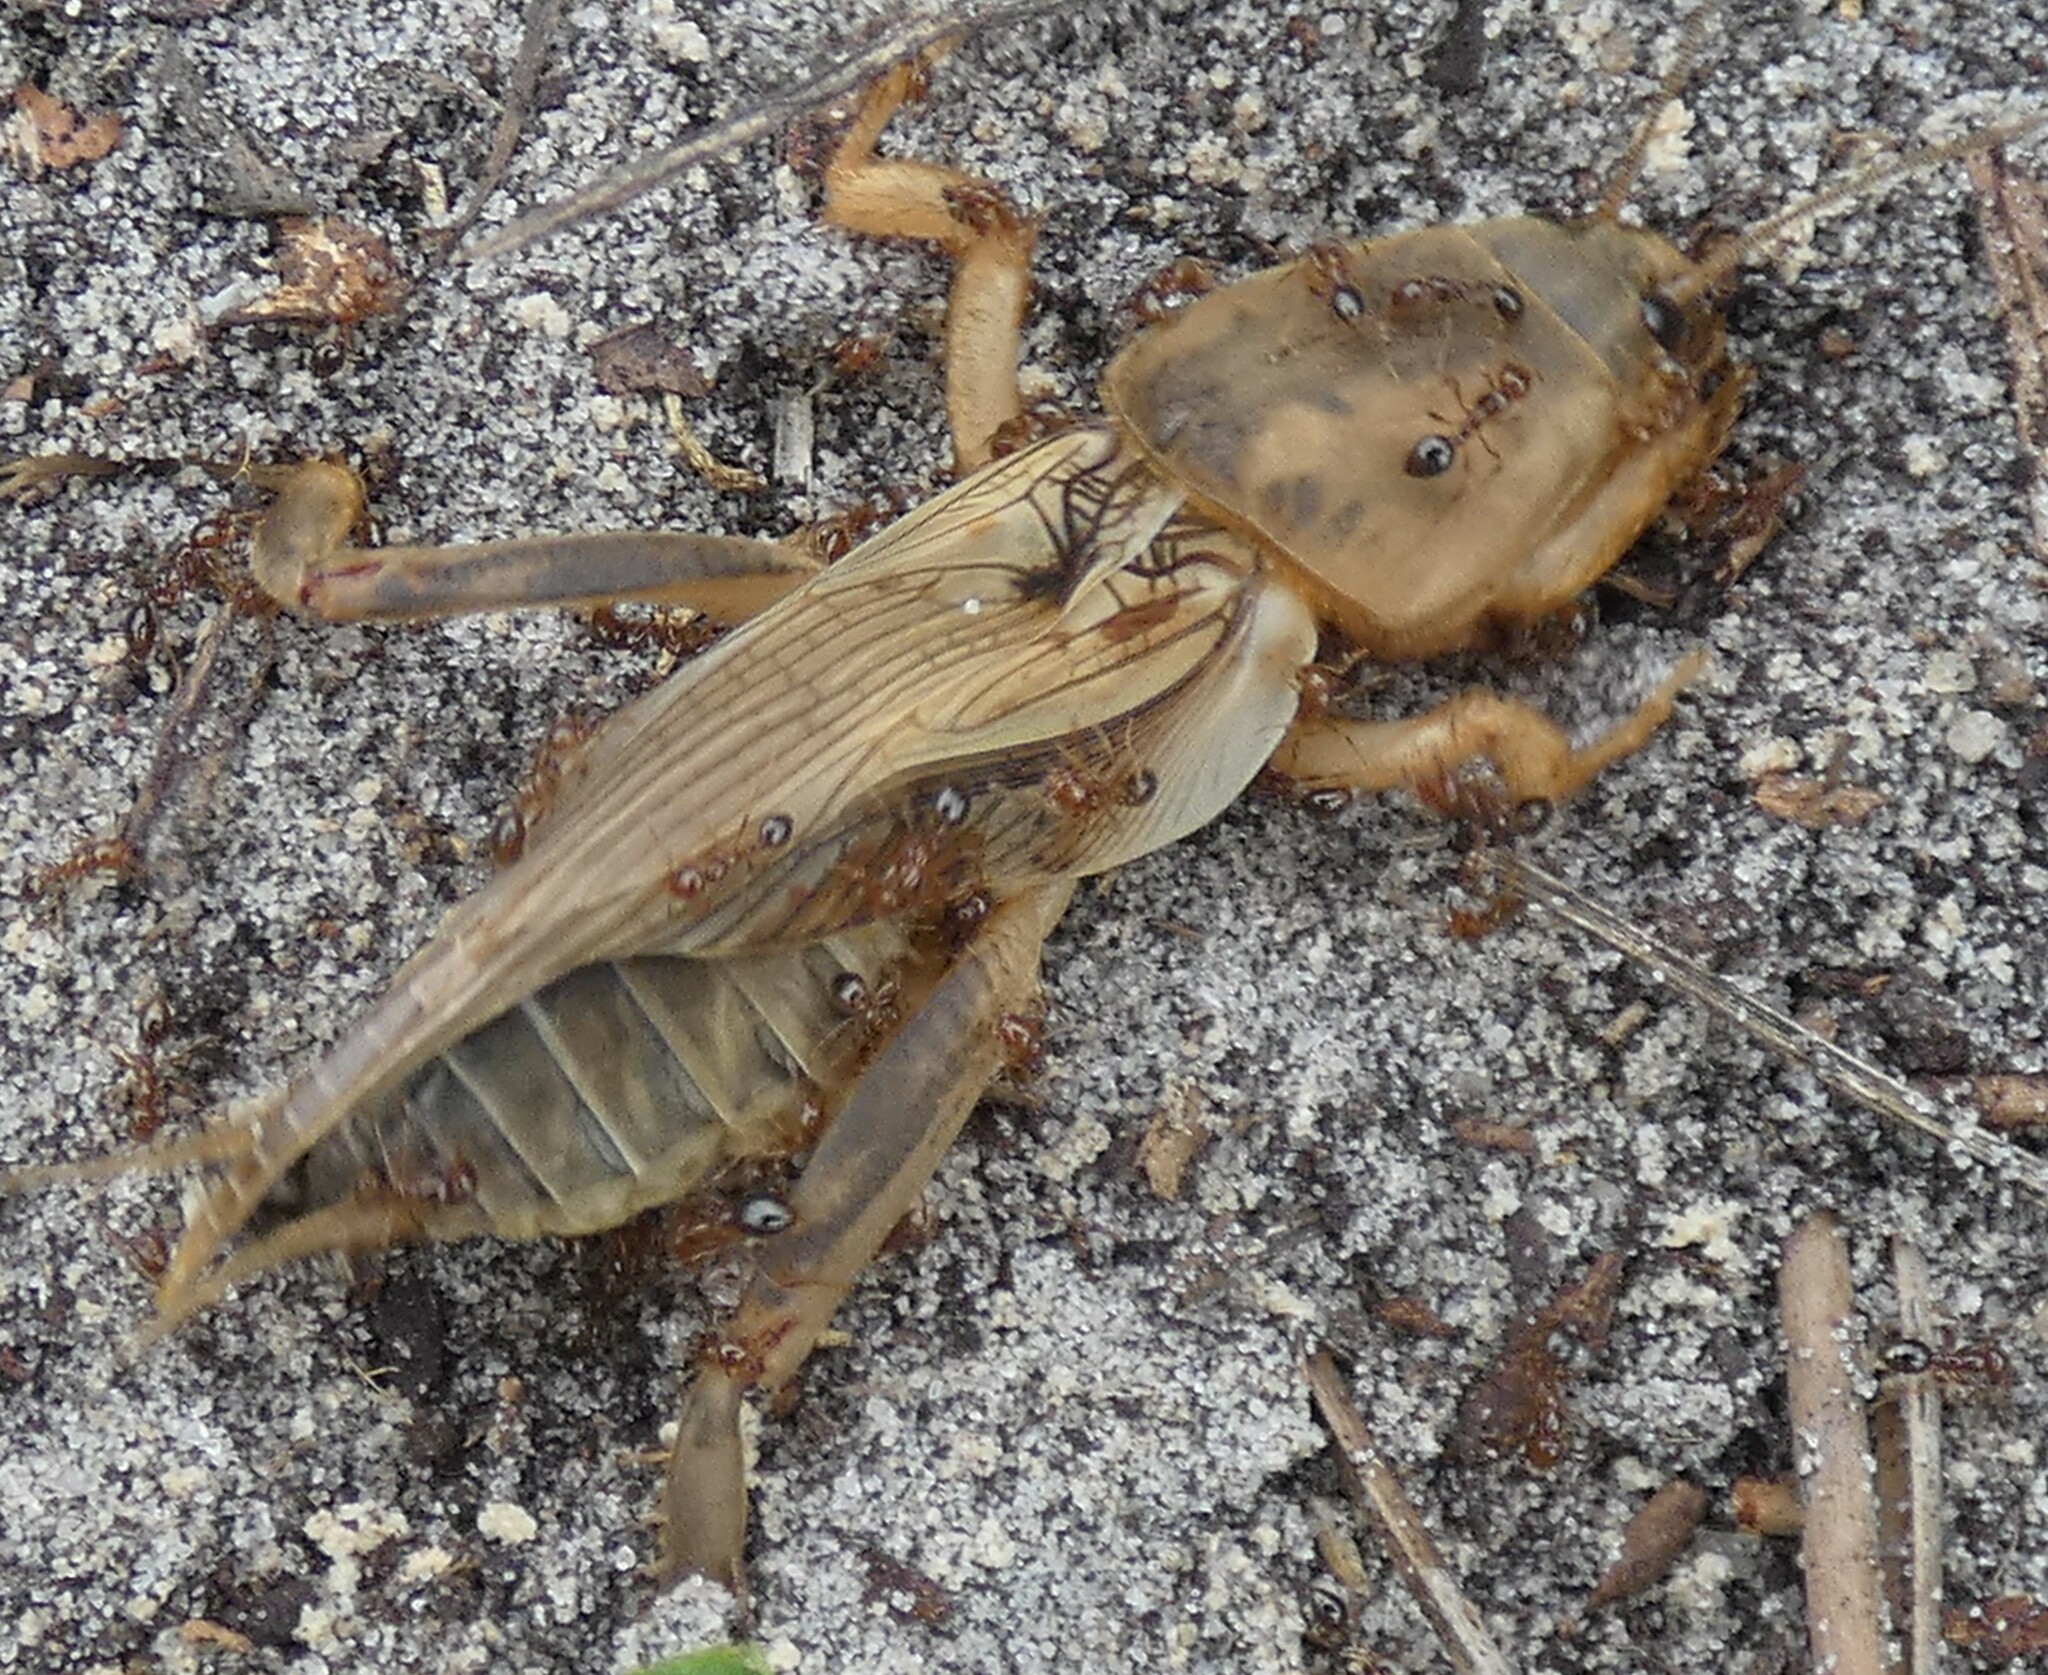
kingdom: Animalia
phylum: Arthropoda
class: Insecta
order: Hymenoptera
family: Formicidae
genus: Solenopsis
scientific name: Solenopsis invicta
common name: Red imported fire ant
